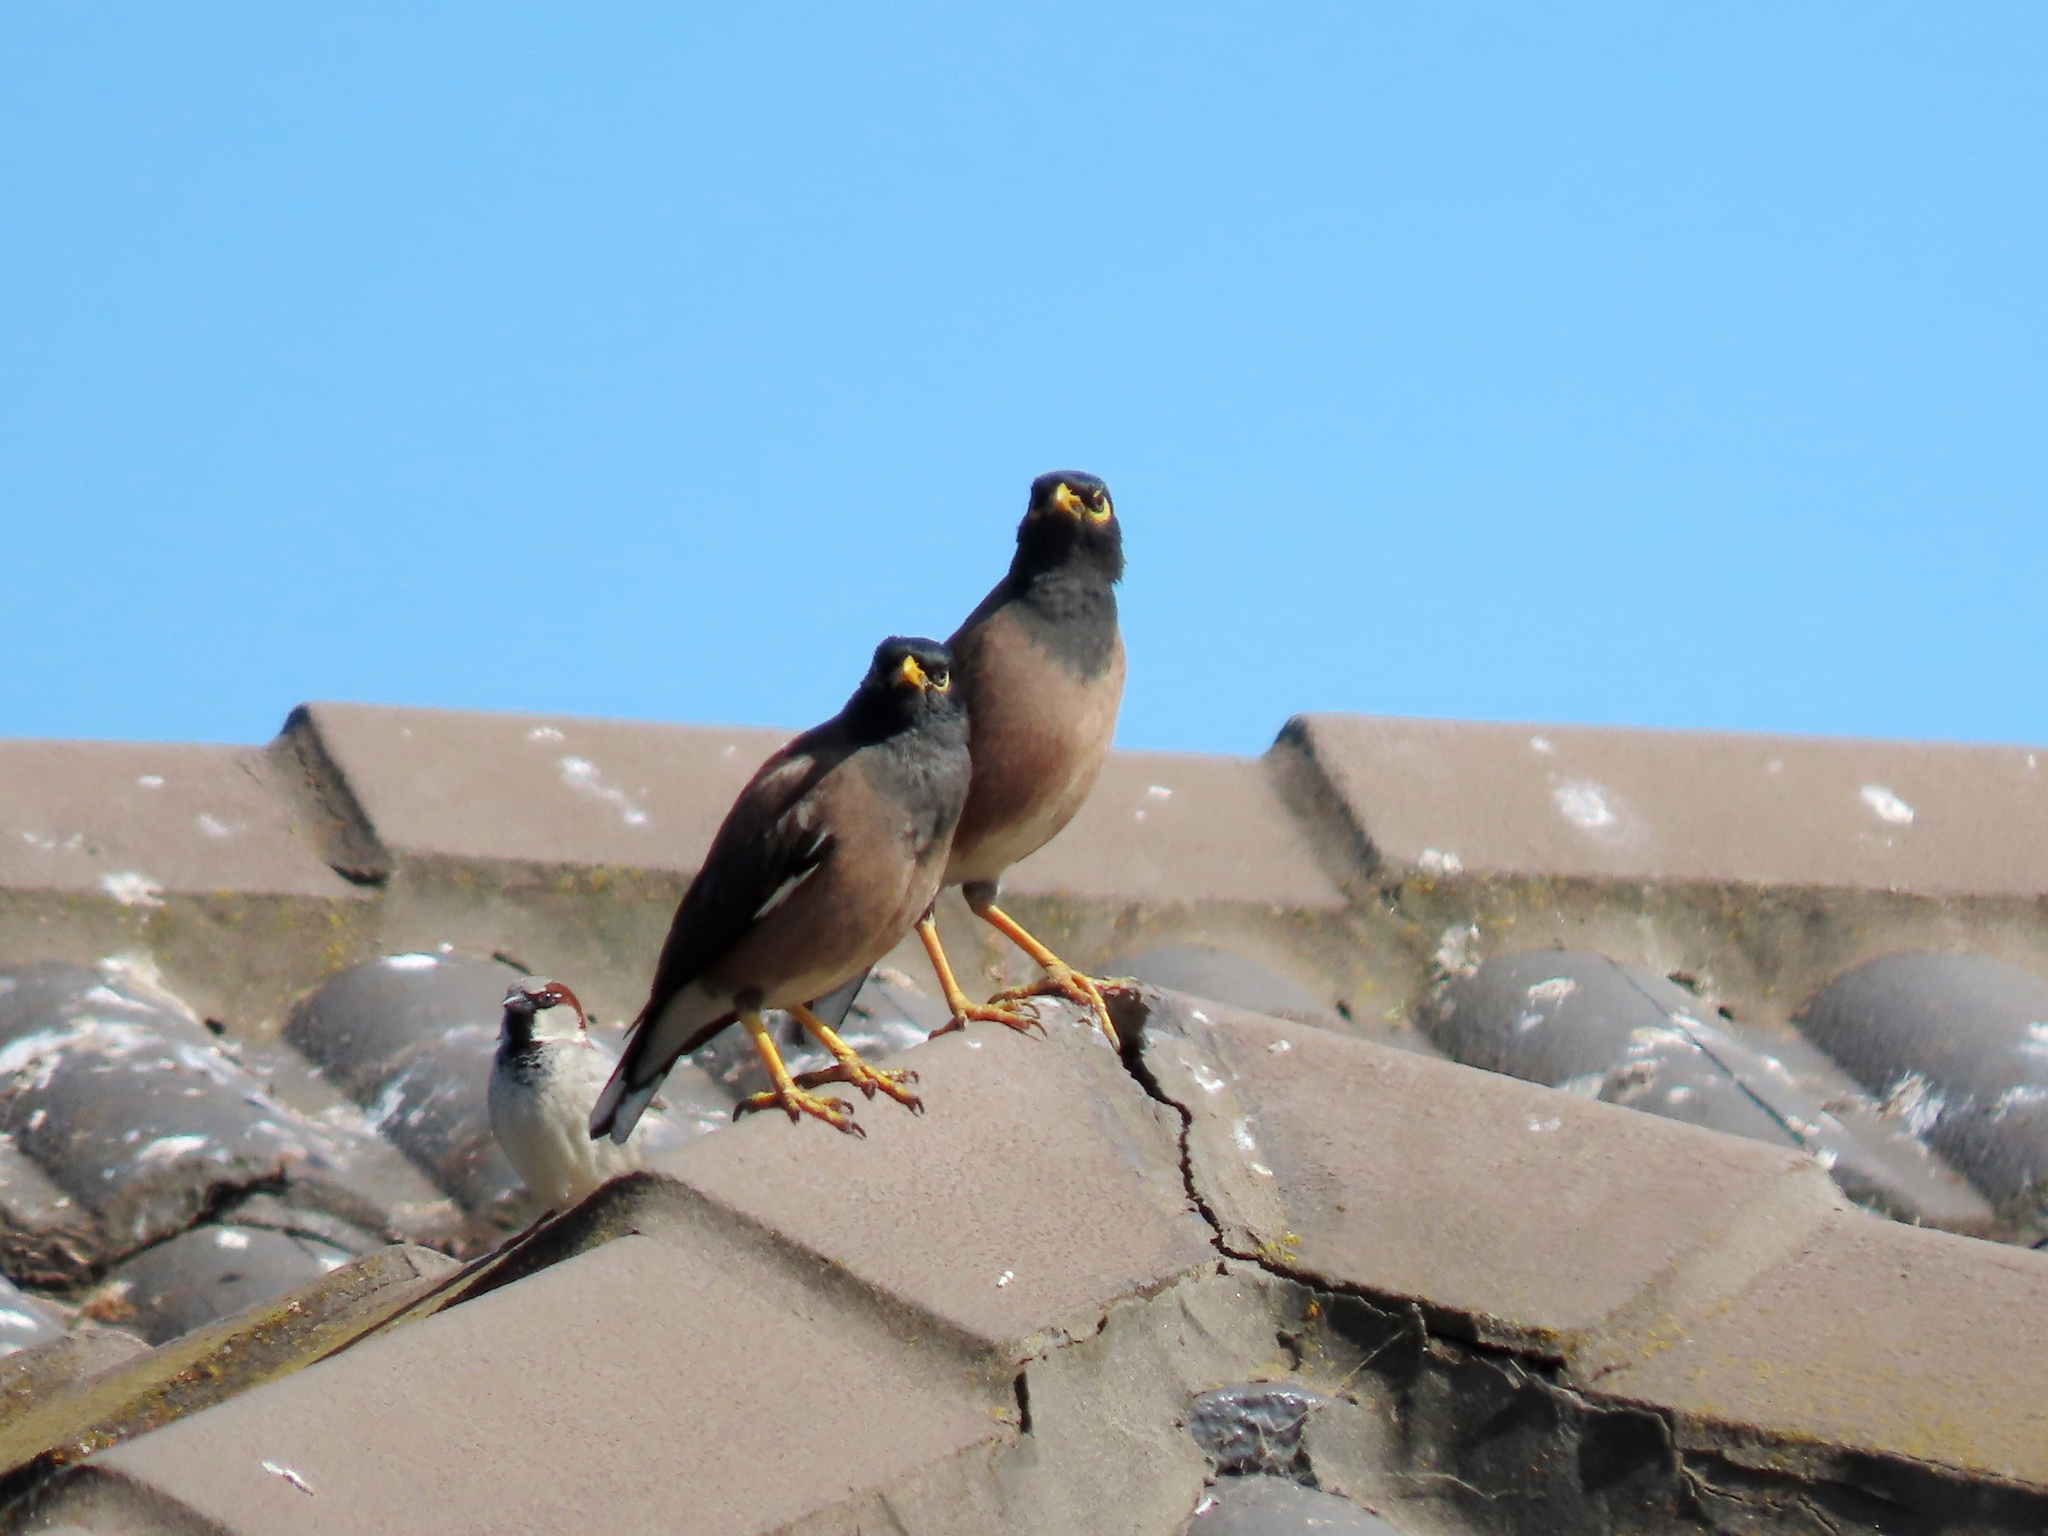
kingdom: Animalia
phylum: Chordata
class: Aves
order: Passeriformes
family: Sturnidae
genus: Acridotheres
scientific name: Acridotheres tristis
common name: Common myna
